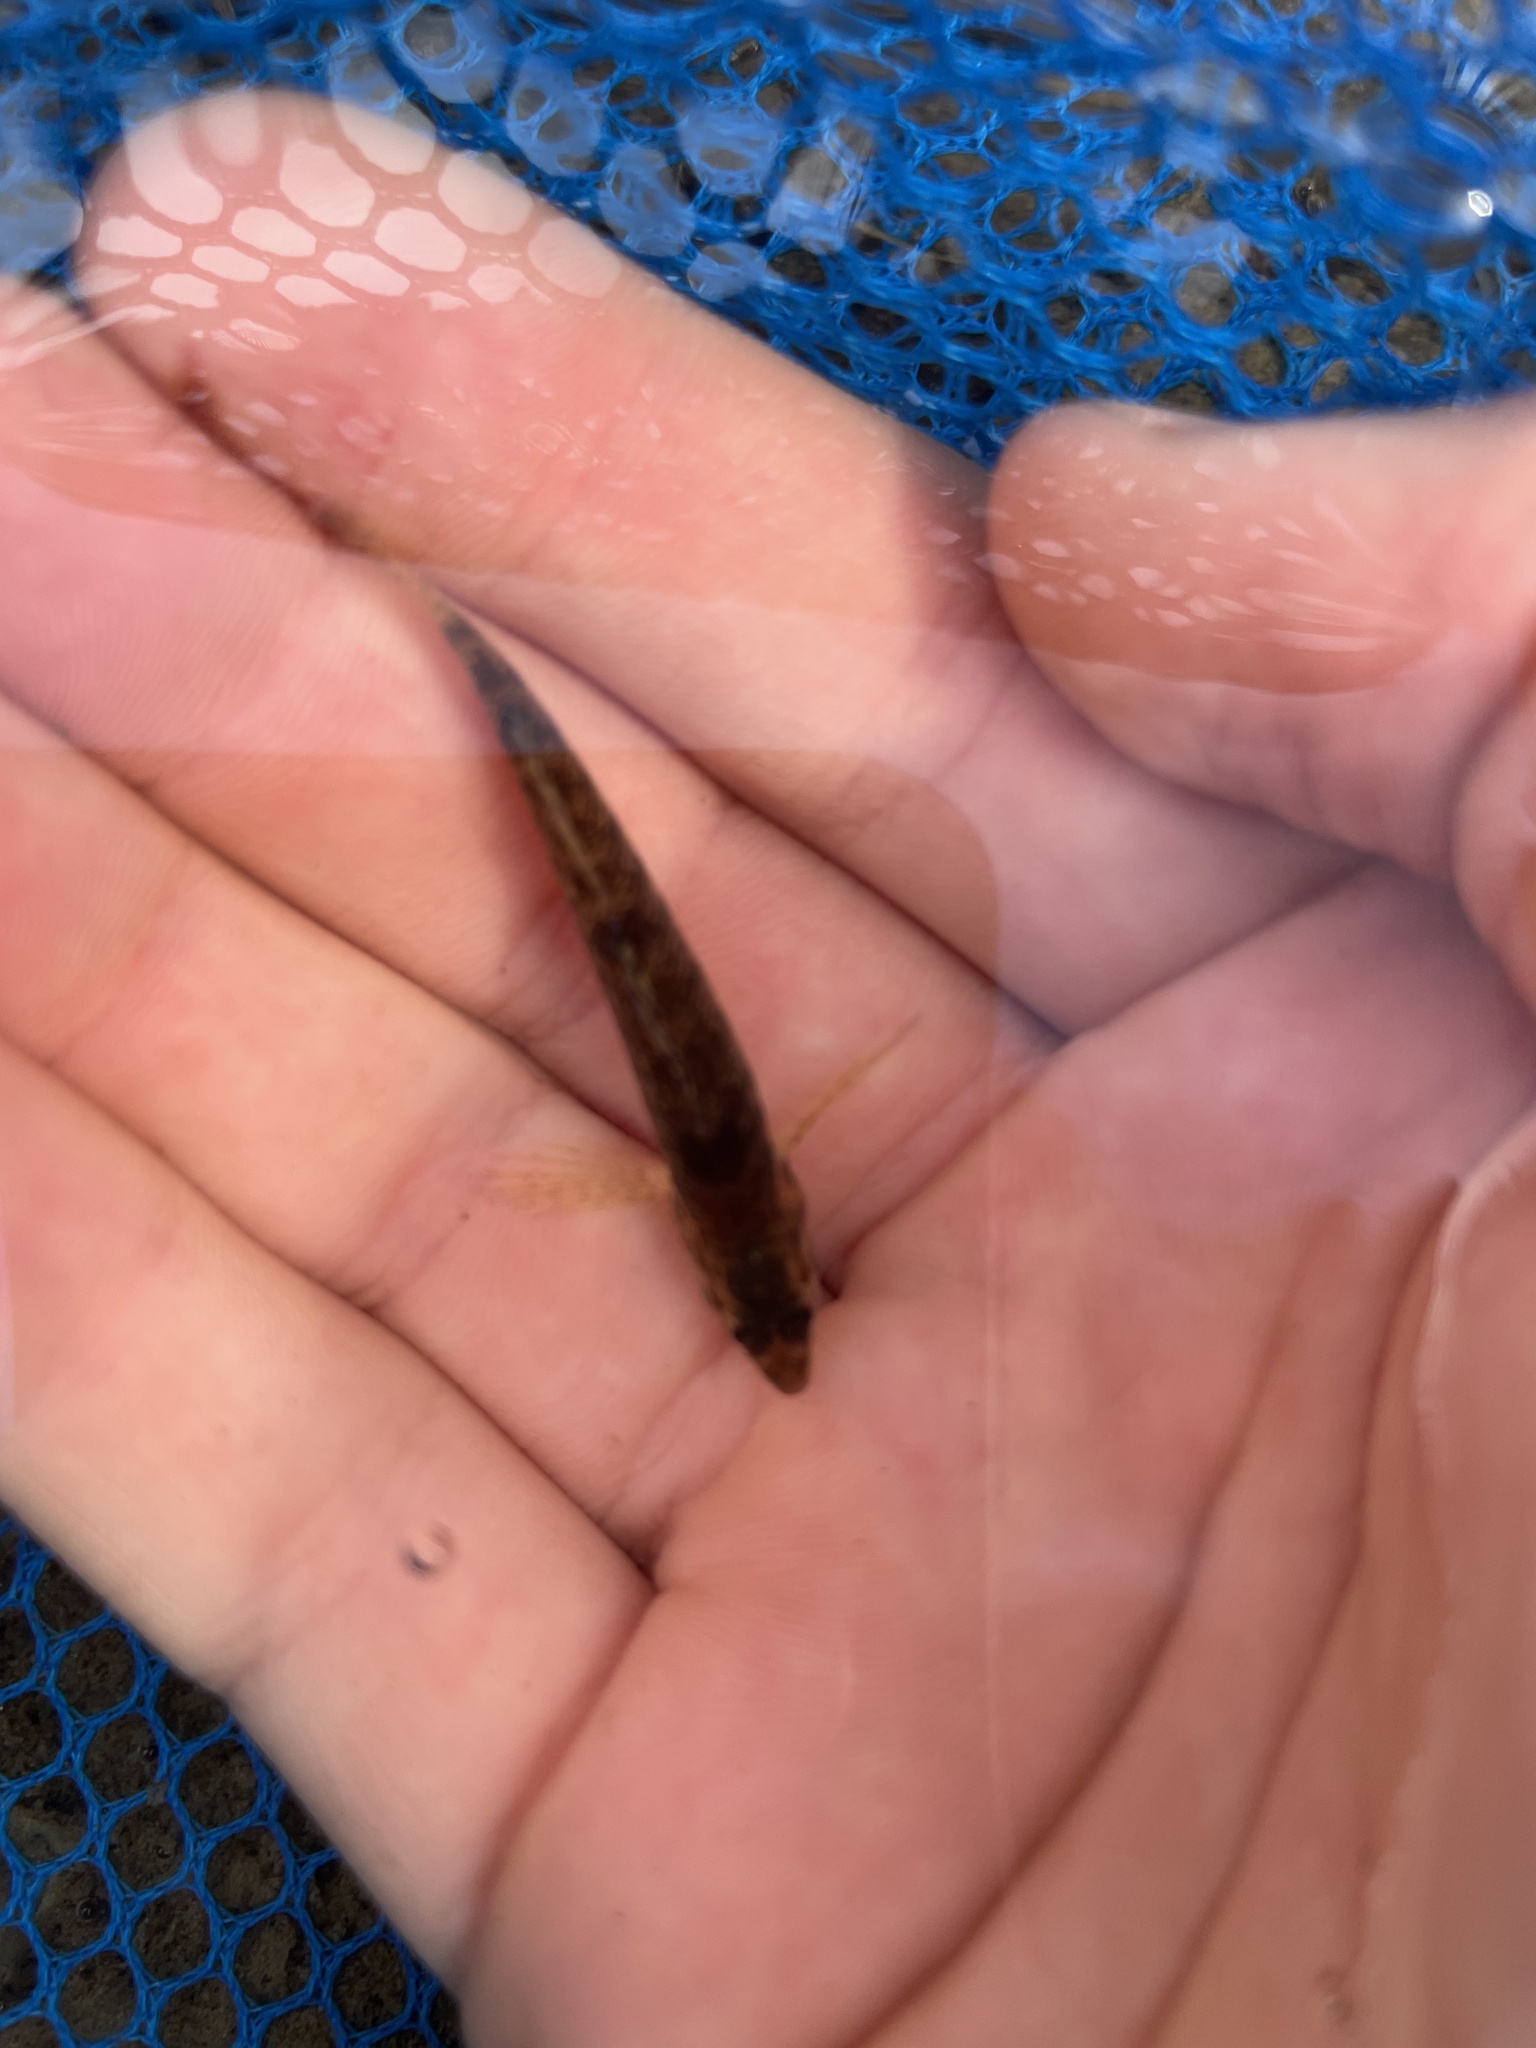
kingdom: Animalia
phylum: Chordata
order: Perciformes
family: Percidae
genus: Etheostoma
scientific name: Etheostoma caeruleum
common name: Rainbow darter
